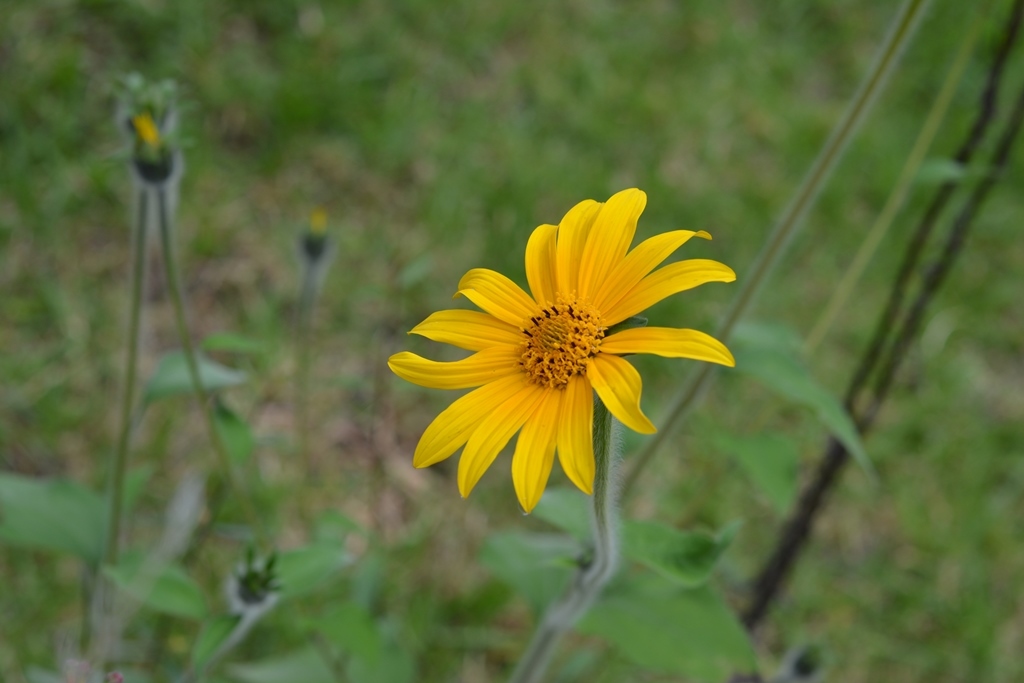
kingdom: Plantae
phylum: Tracheophyta
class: Magnoliopsida
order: Asterales
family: Asteraceae
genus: Tithonia
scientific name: Tithonia tubaeformis
